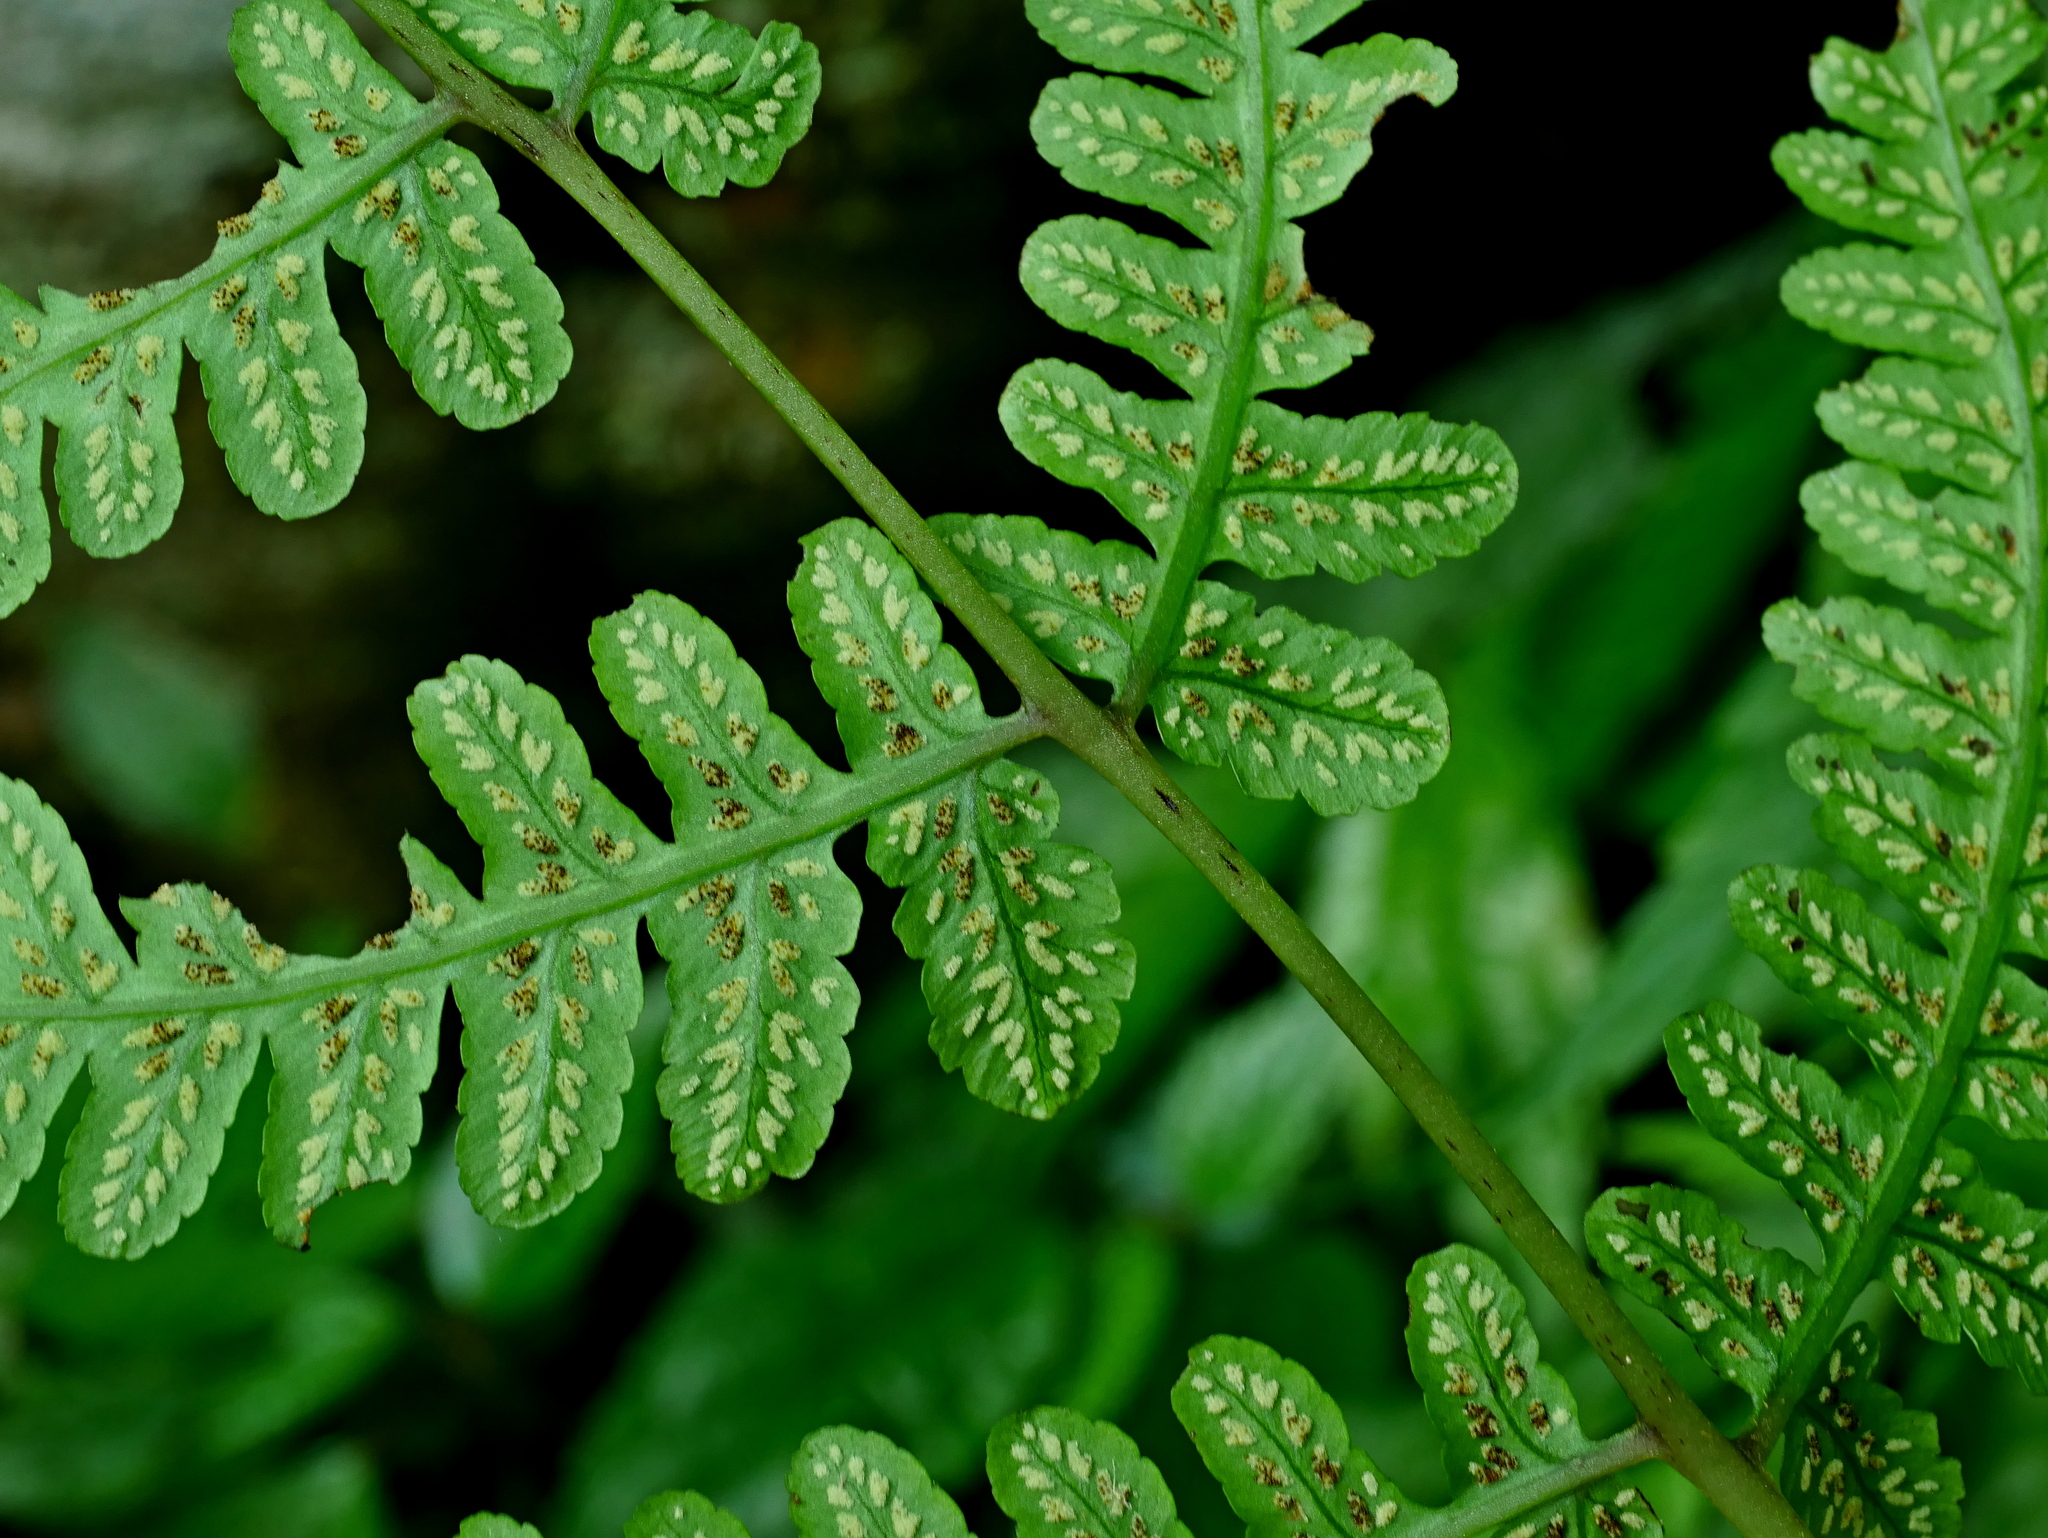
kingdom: Plantae
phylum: Tracheophyta
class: Polypodiopsida
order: Polypodiales
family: Athyriaceae
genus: Cornopteris
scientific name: Cornopteris opaca
